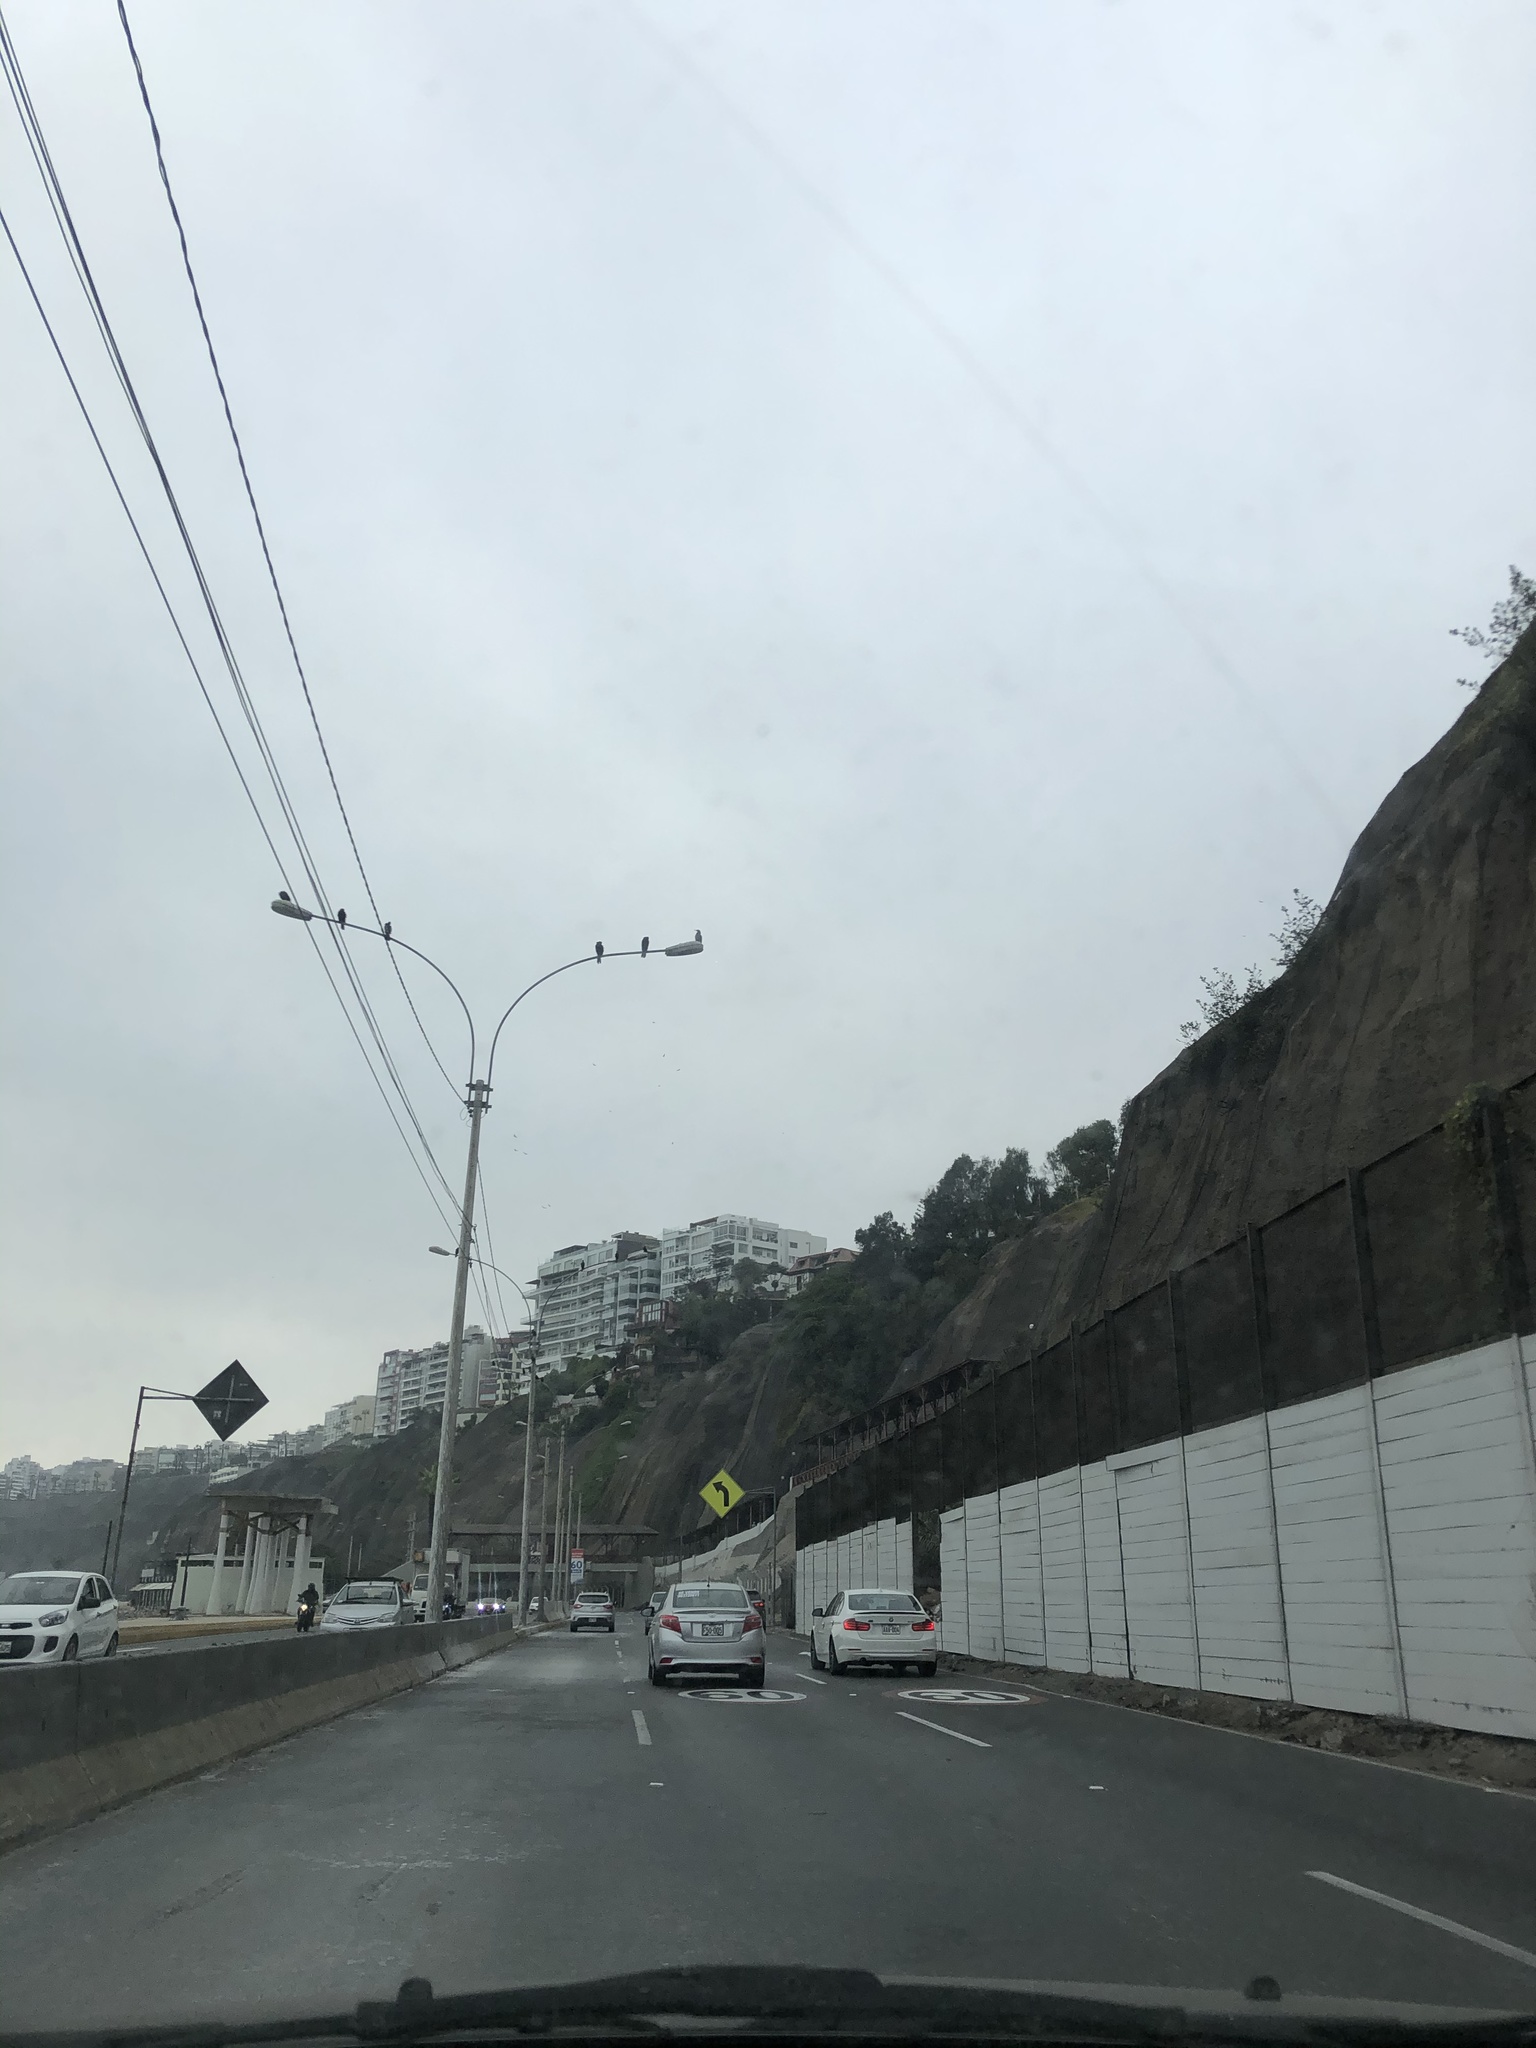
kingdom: Animalia
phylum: Chordata
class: Aves
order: Suliformes
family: Phalacrocoracidae
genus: Phalacrocorax
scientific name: Phalacrocorax brasilianus
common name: Neotropic cormorant
